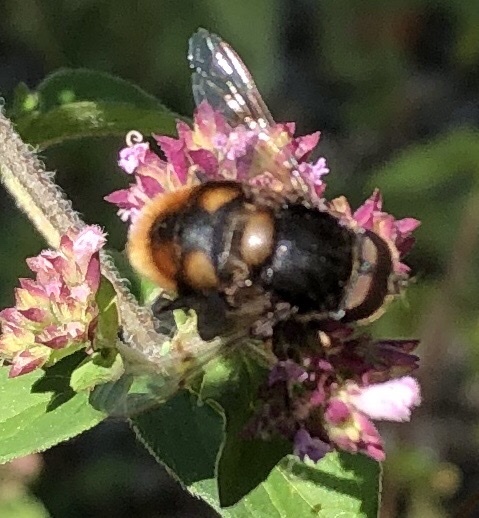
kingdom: Animalia
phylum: Arthropoda
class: Insecta
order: Diptera
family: Syrphidae
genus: Eristalis
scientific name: Eristalis intricaria
